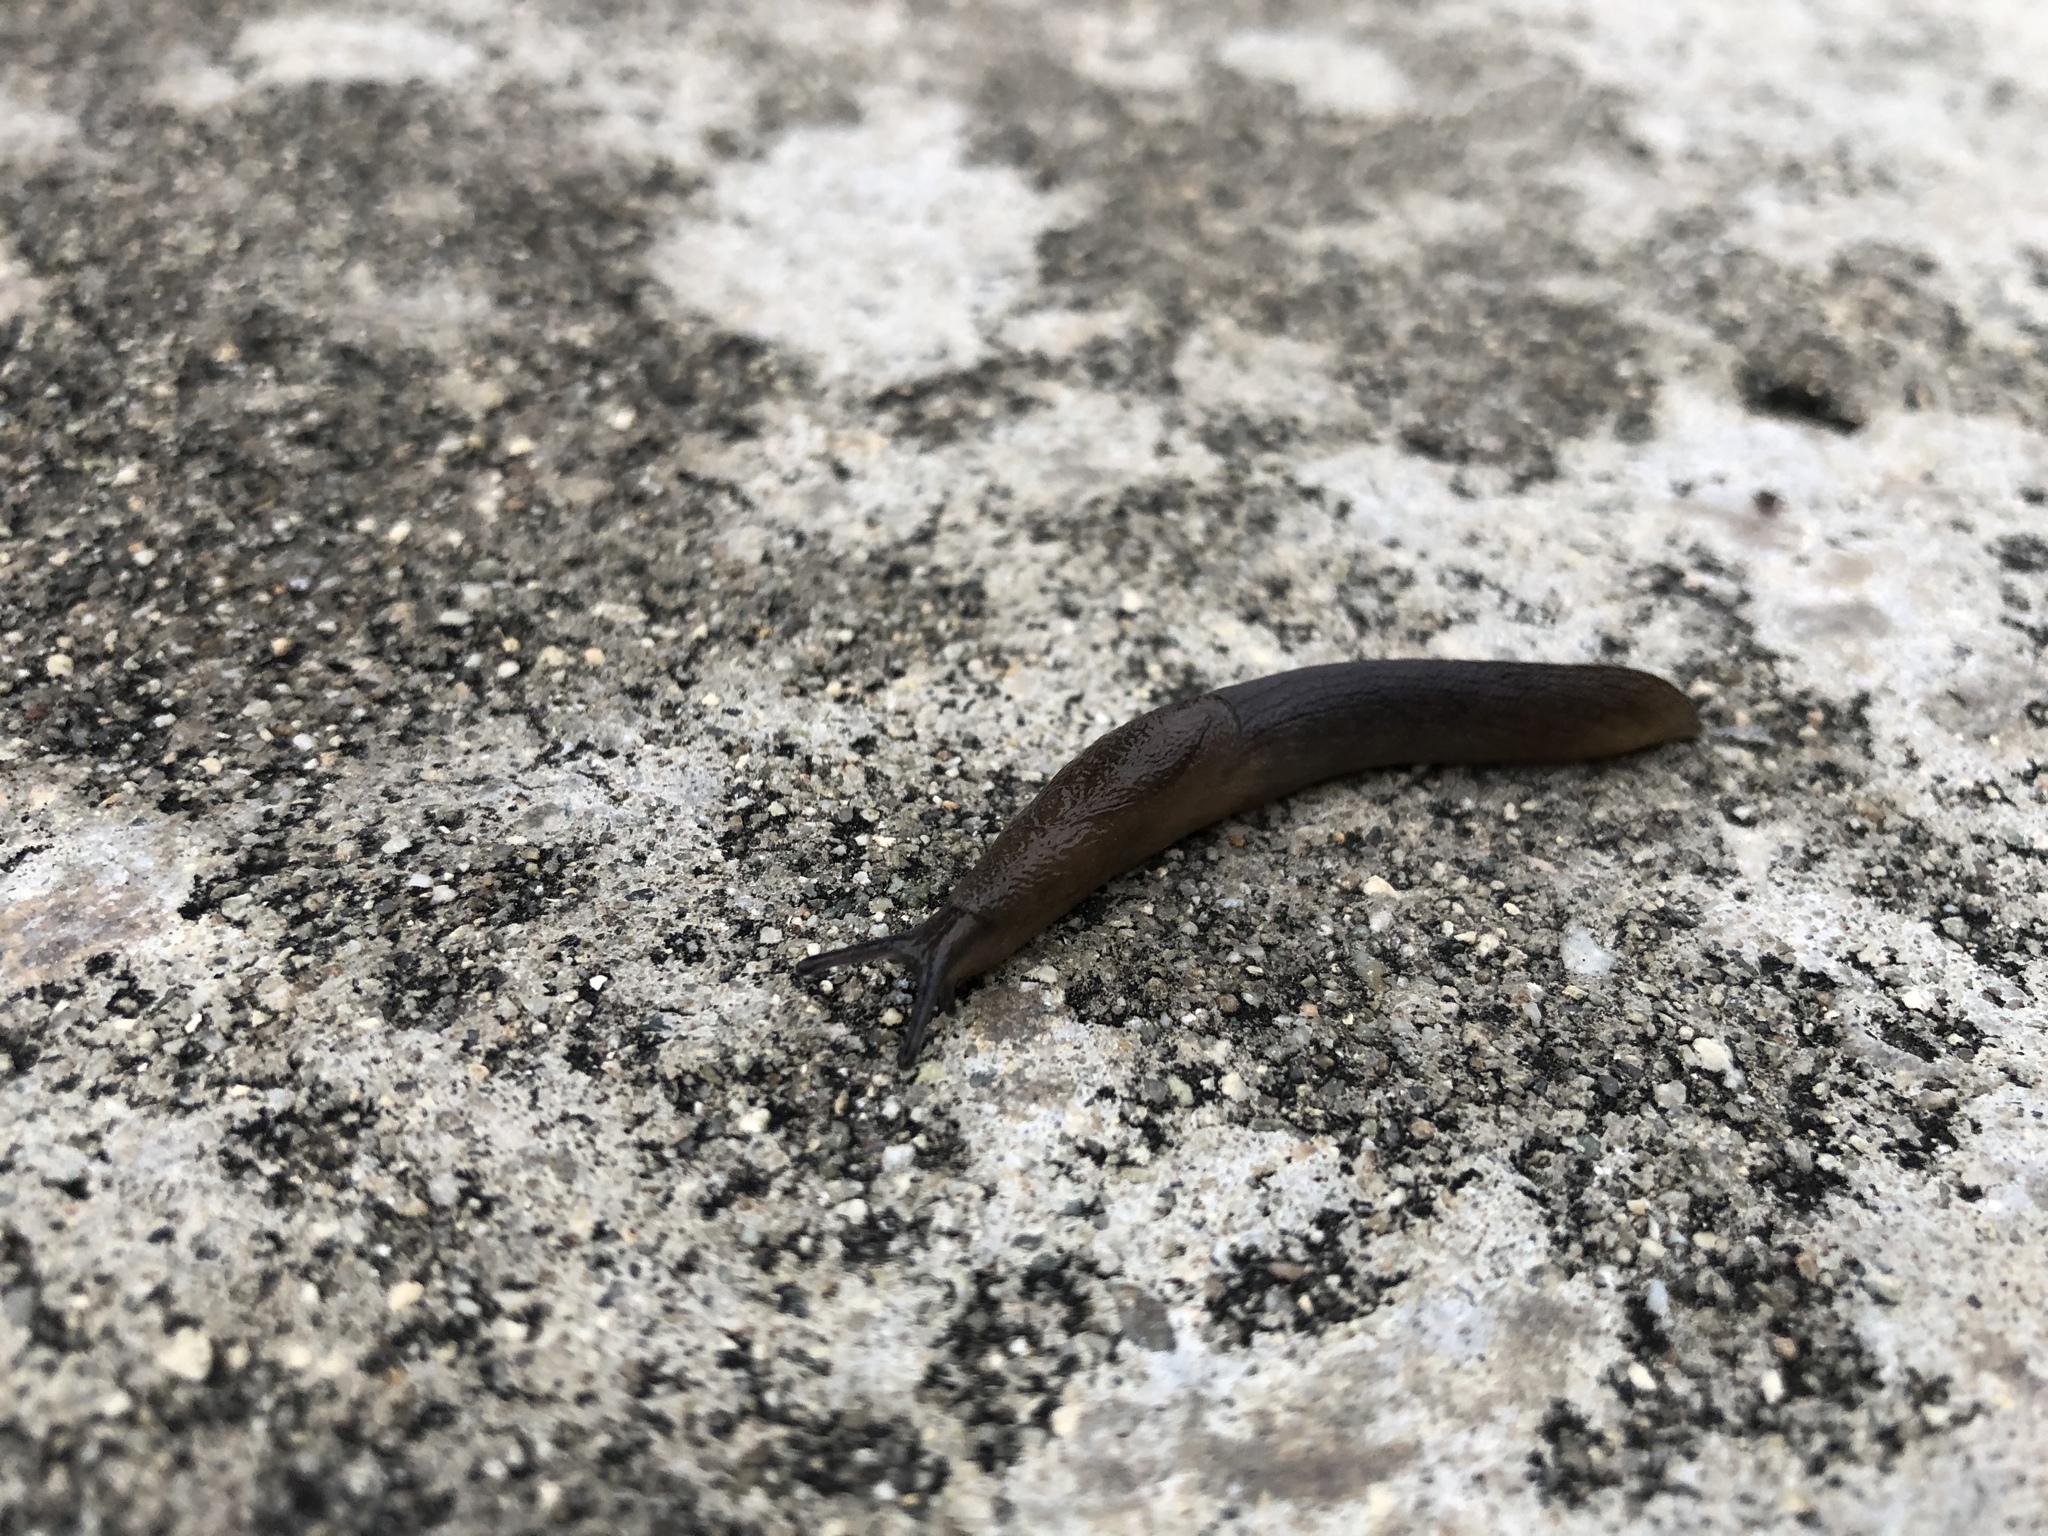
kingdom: Animalia
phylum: Mollusca
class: Gastropoda
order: Stylommatophora
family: Milacidae
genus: Milax
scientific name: Milax gagates
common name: Greenhouse slug
